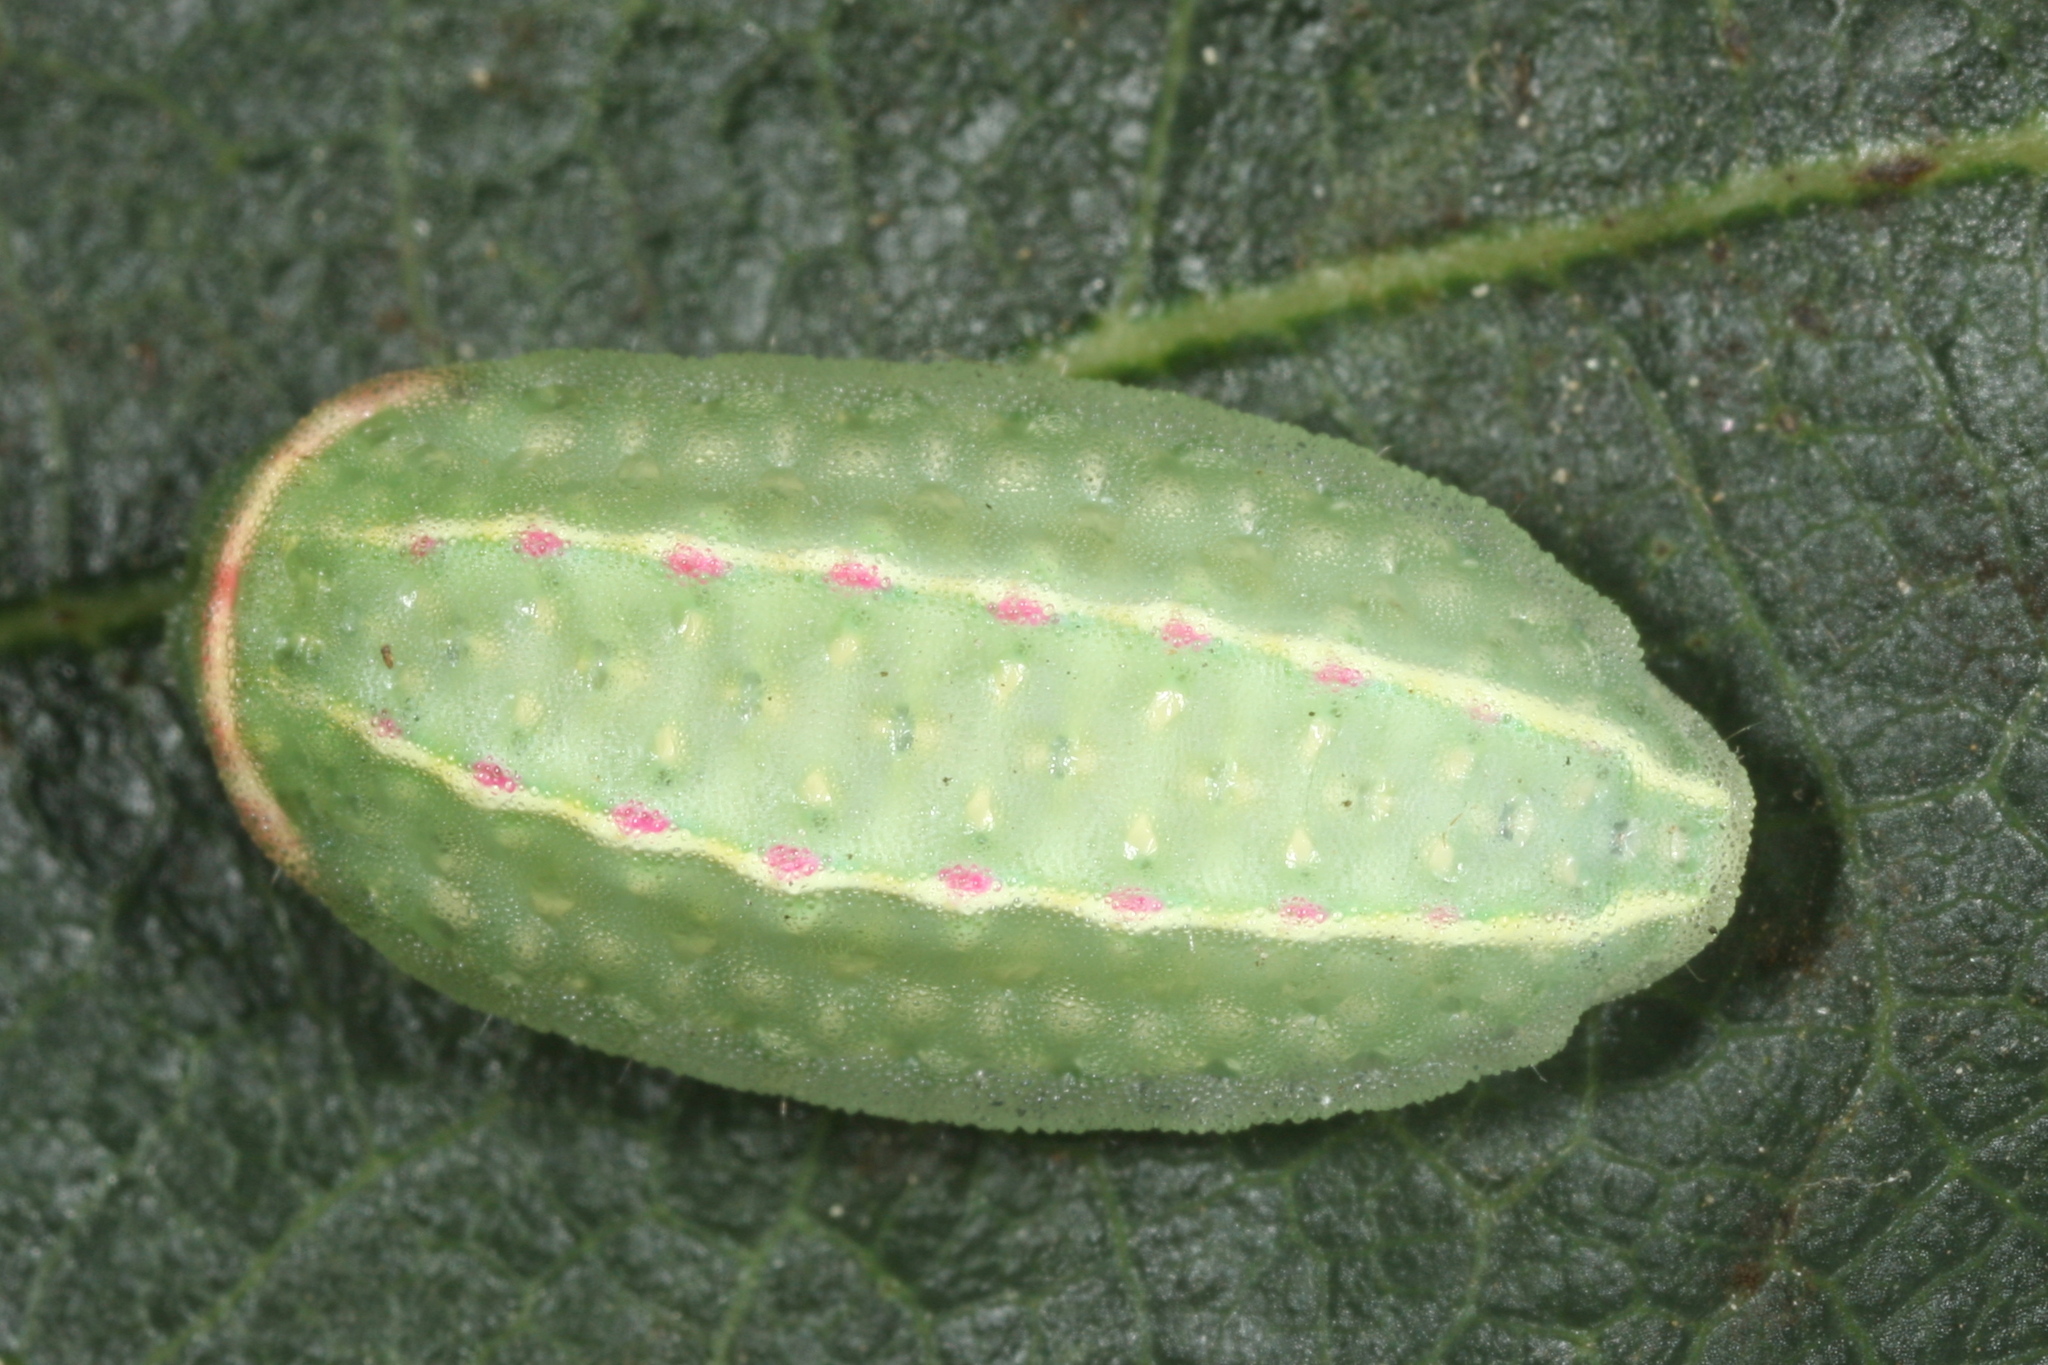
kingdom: Animalia
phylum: Arthropoda
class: Insecta
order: Lepidoptera
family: Limacodidae
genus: Apoda
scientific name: Apoda limacodes
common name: Festoon
